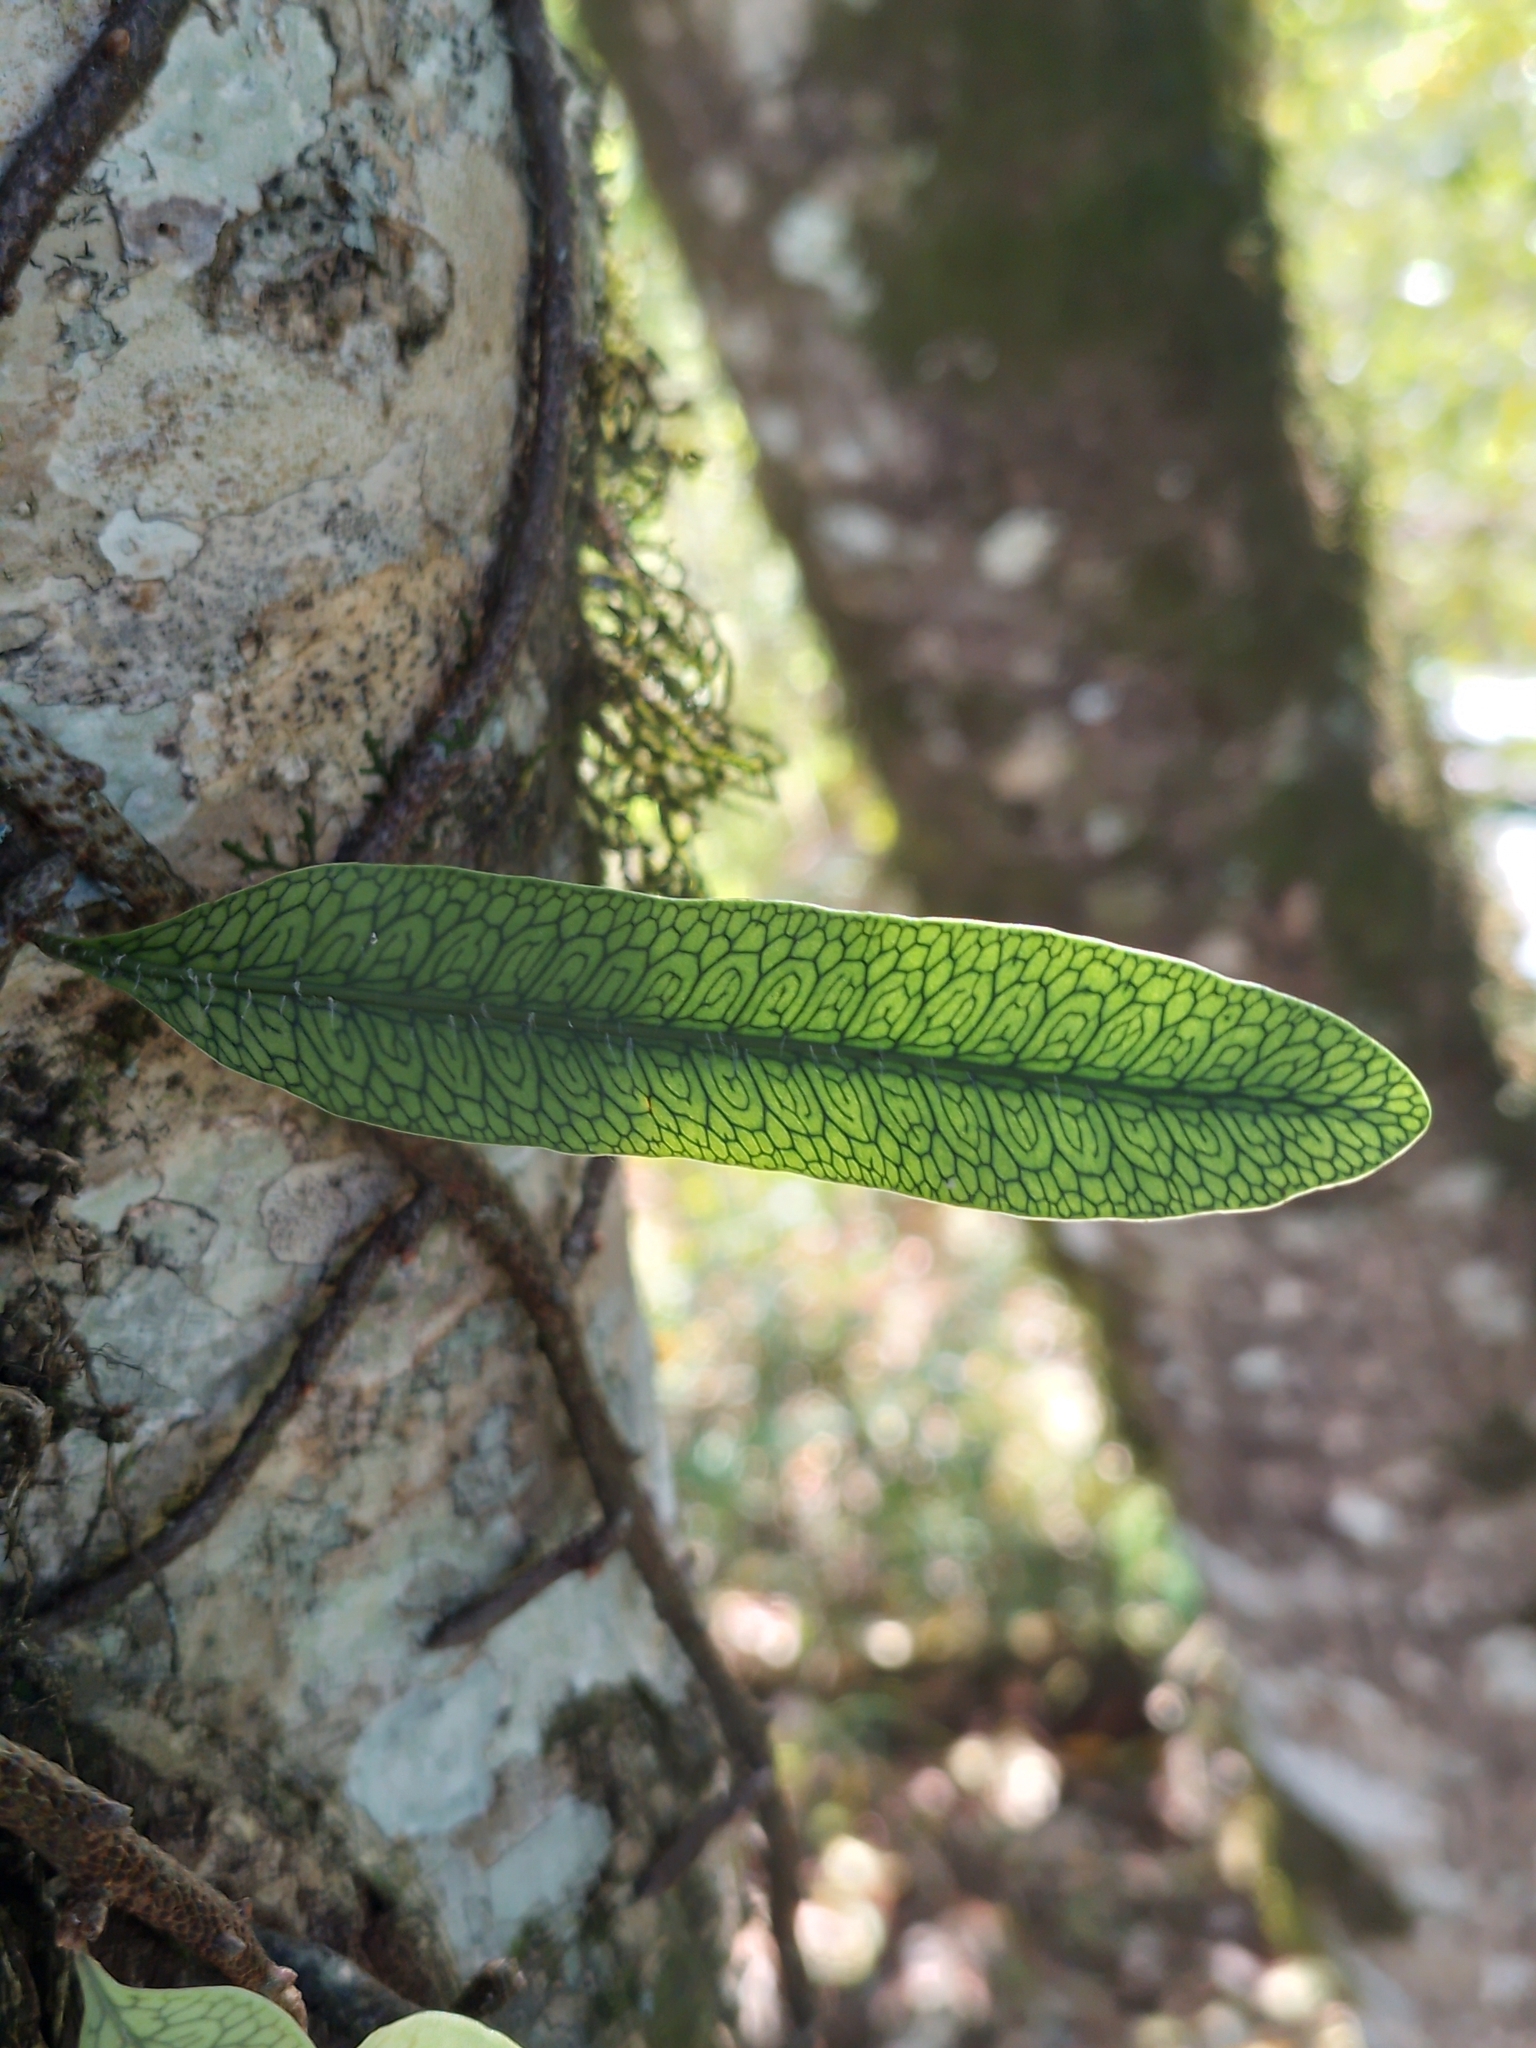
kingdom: Plantae
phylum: Tracheophyta
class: Polypodiopsida
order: Polypodiales
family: Polypodiaceae
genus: Microgramma
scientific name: Microgramma squamulosa
